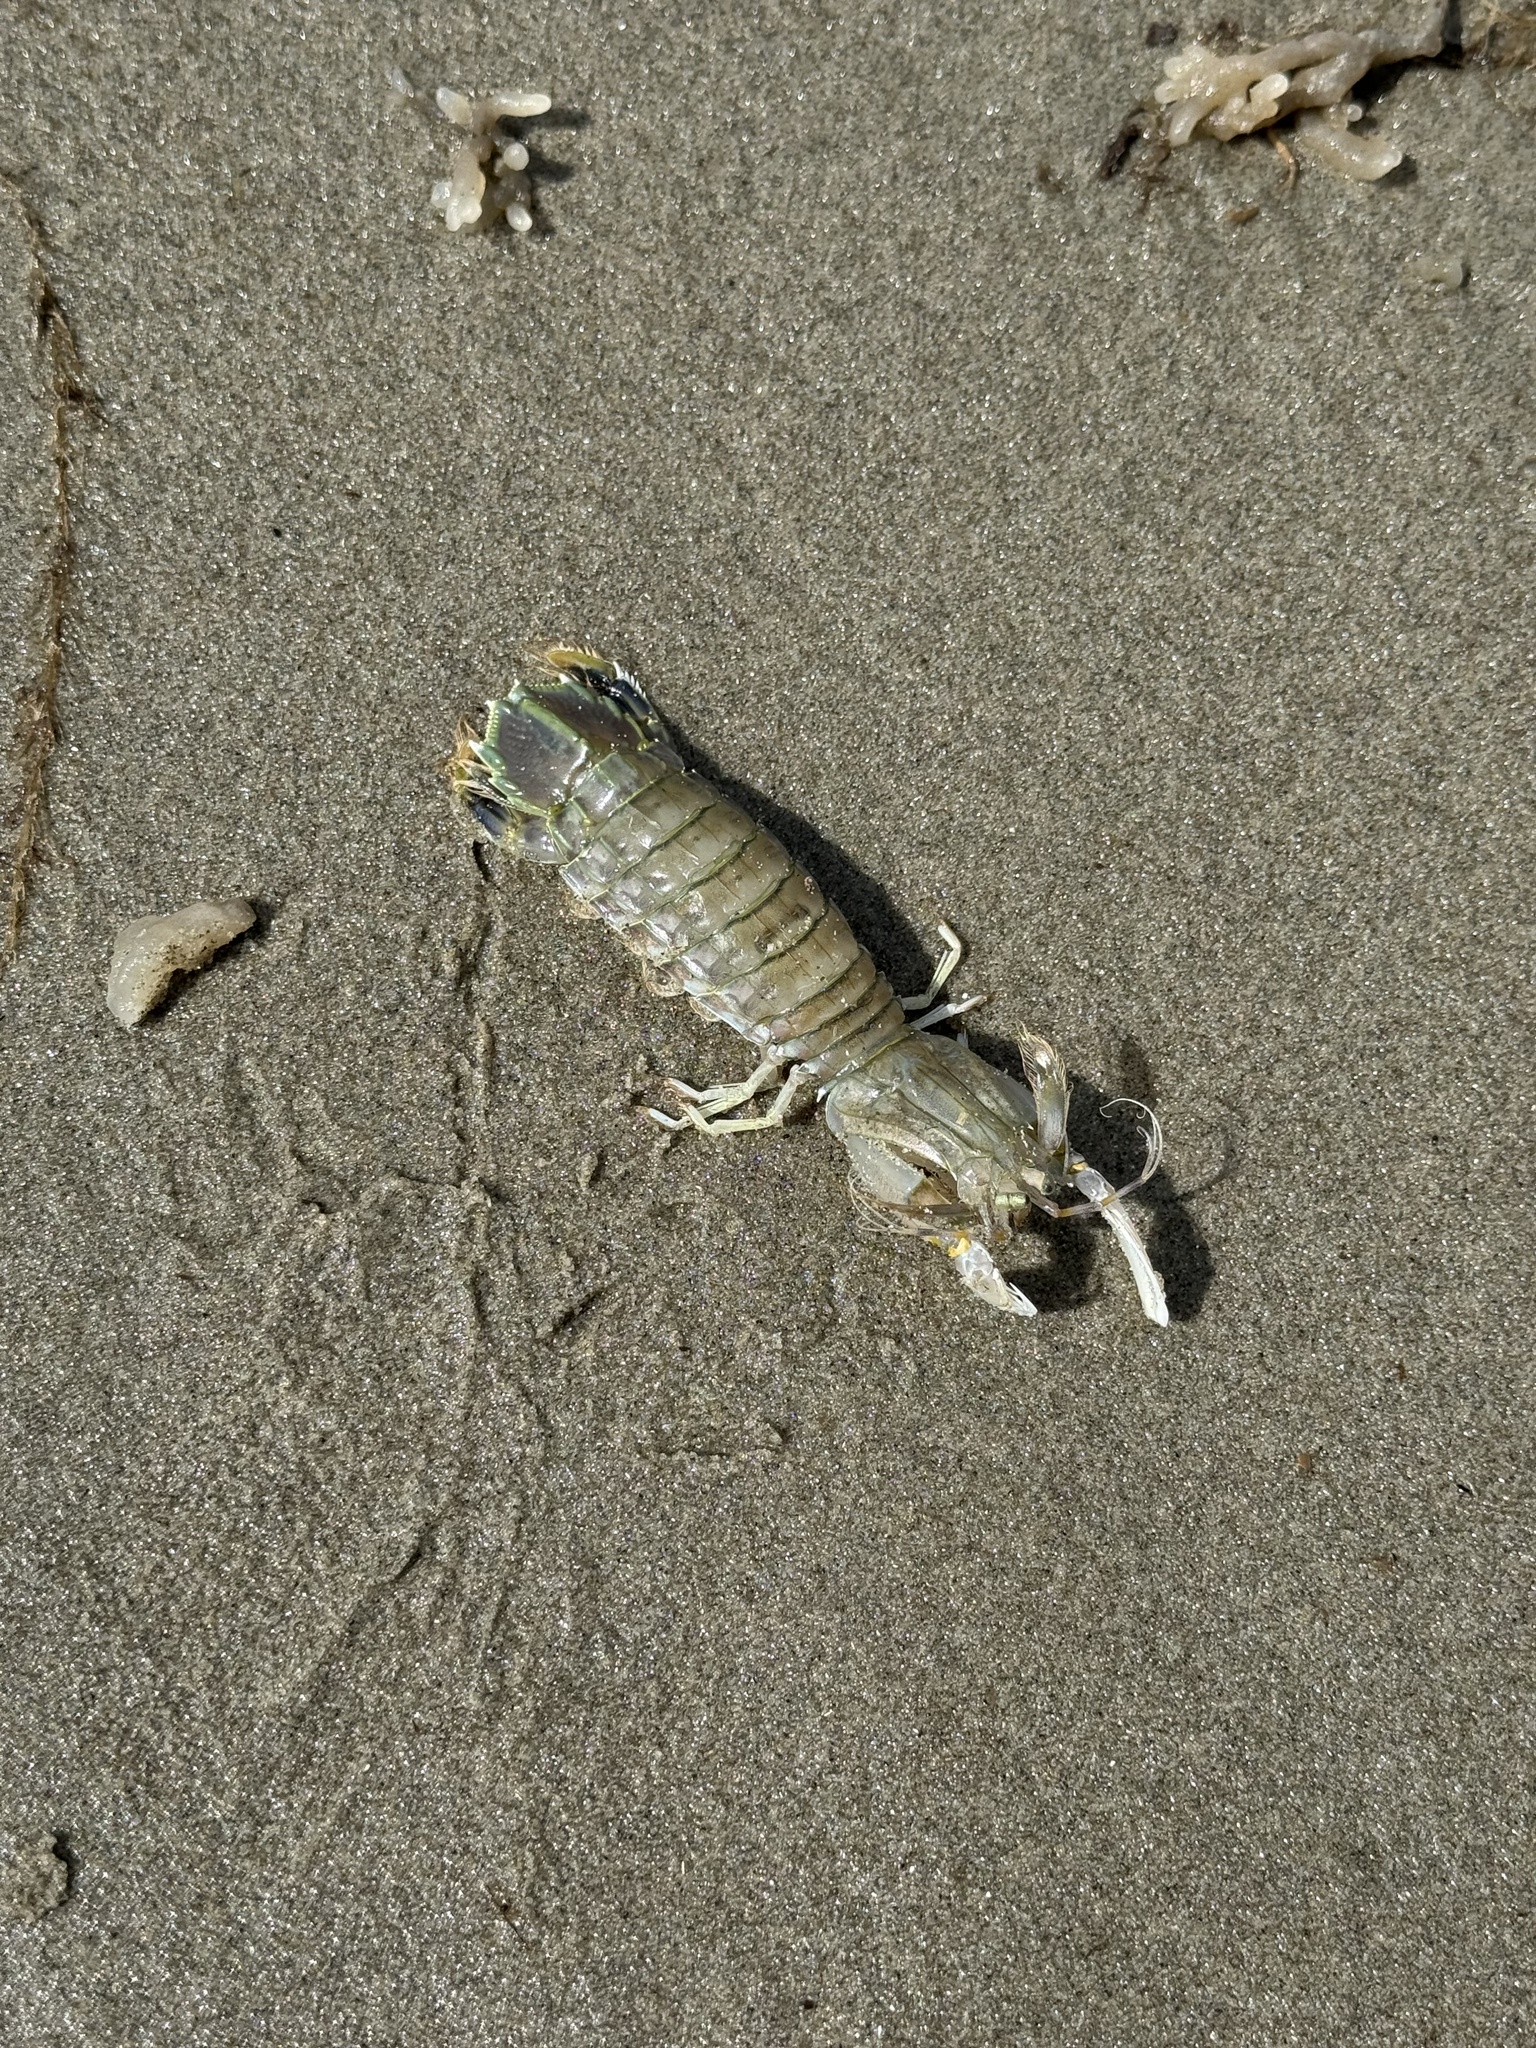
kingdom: Animalia
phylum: Arthropoda
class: Malacostraca
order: Stomatopoda
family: Squillidae
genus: Squilla
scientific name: Squilla empusa
